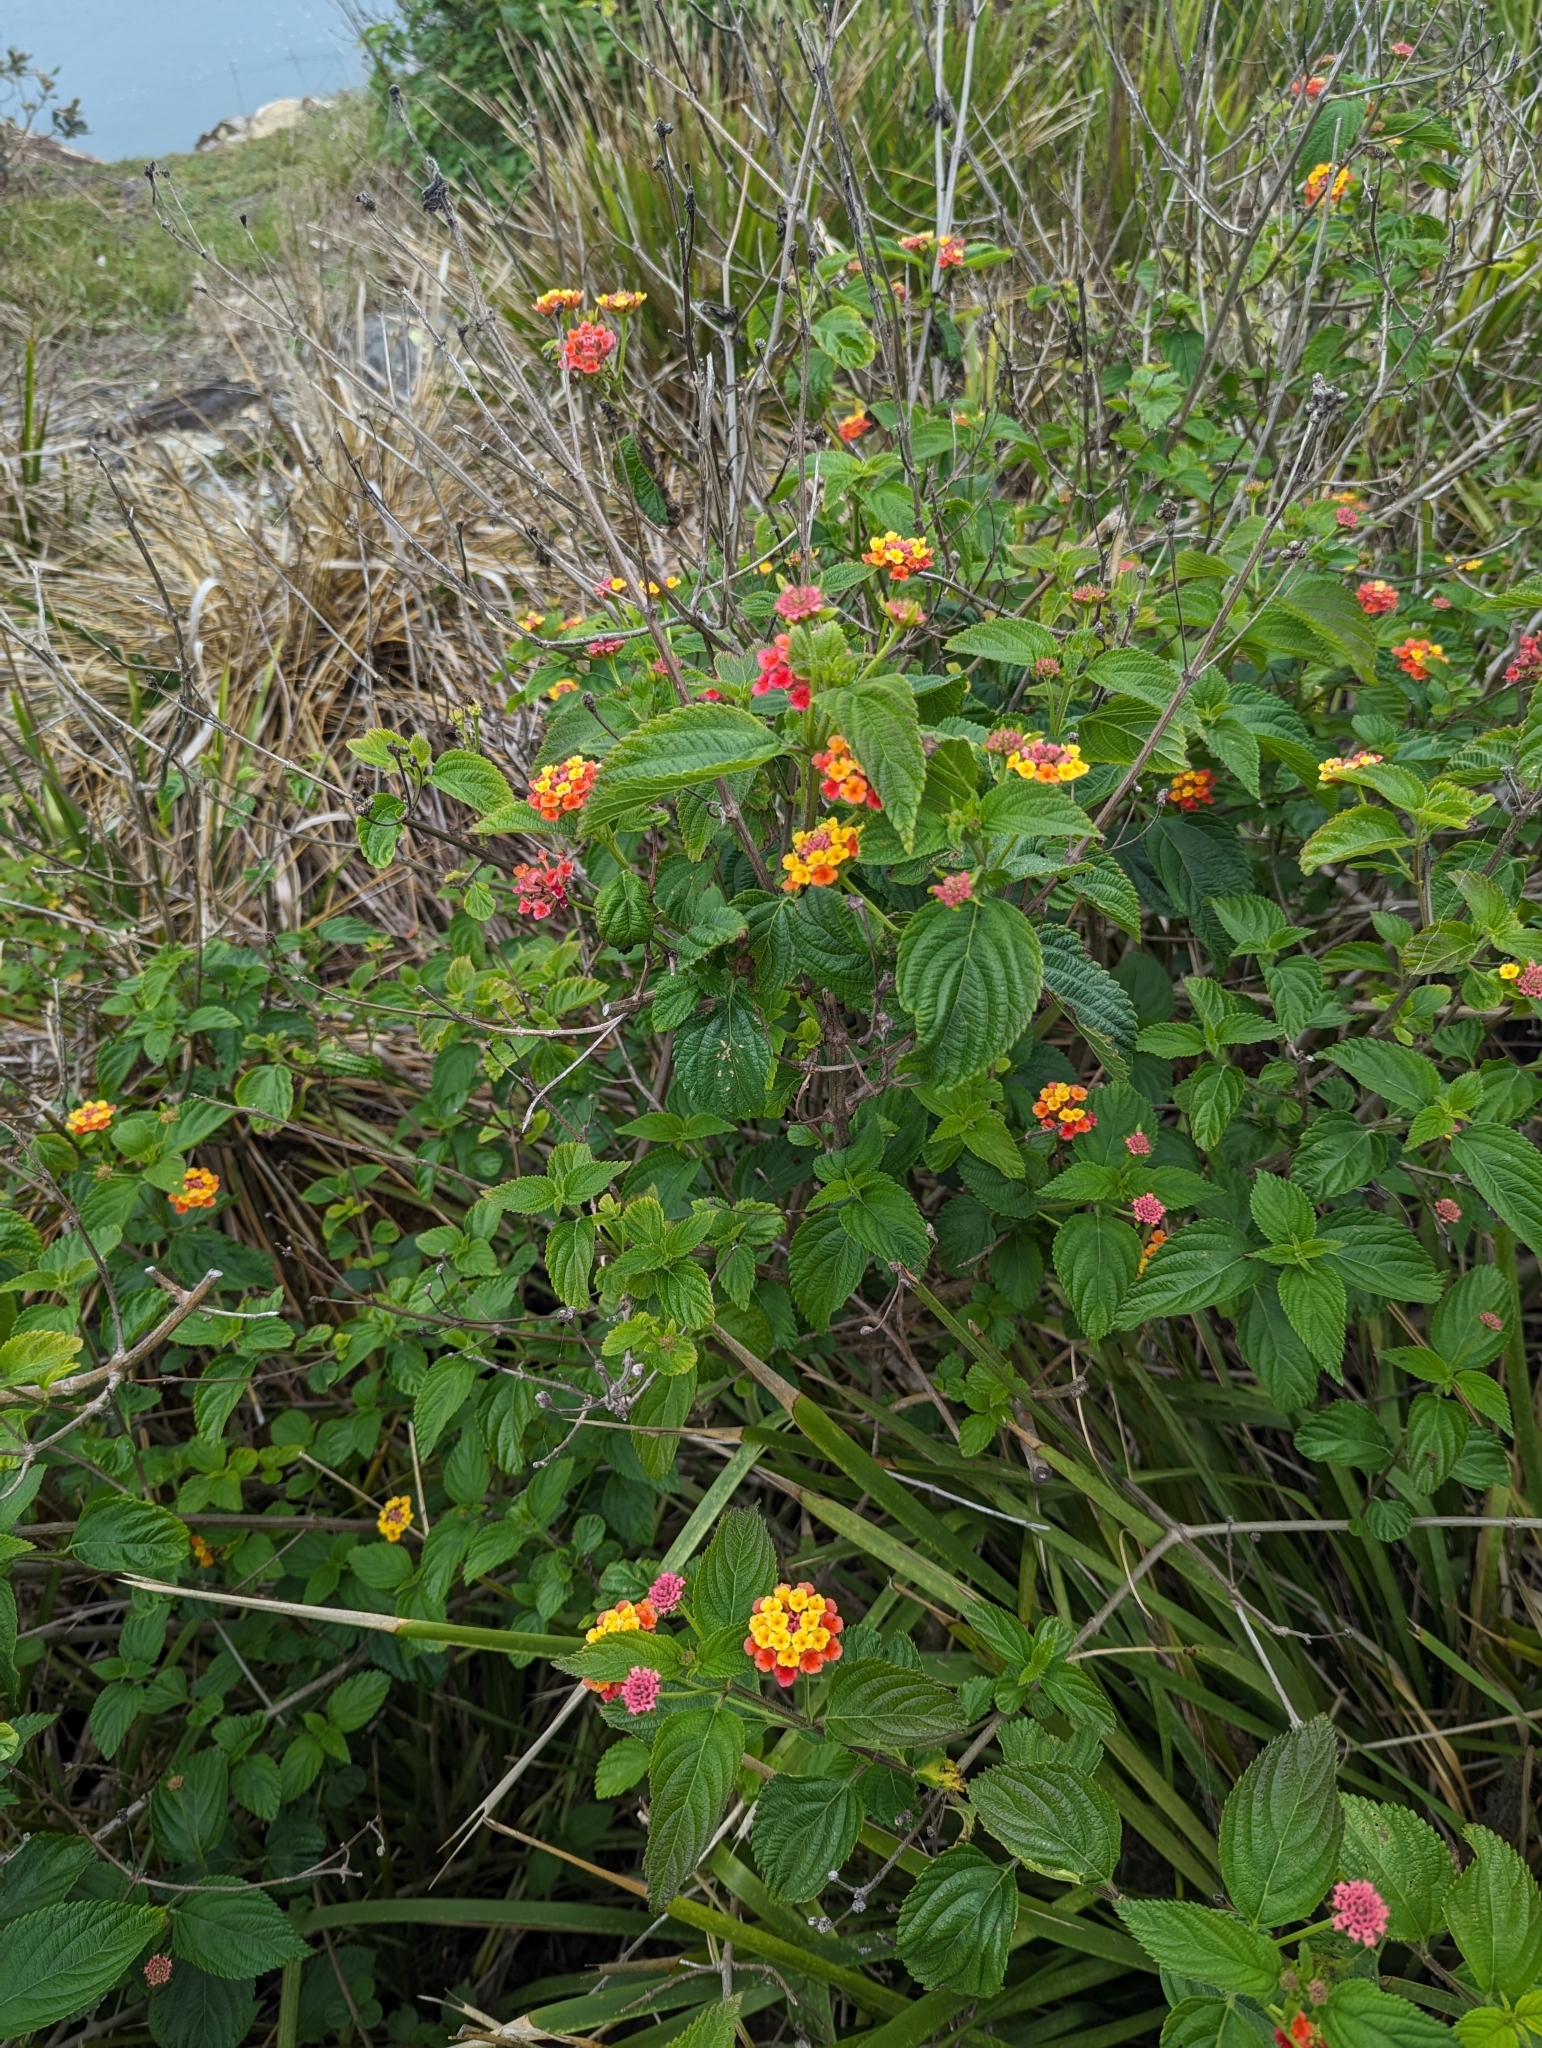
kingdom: Plantae
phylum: Tracheophyta
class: Magnoliopsida
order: Lamiales
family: Verbenaceae
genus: Lantana
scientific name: Lantana camara
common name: Lantana
